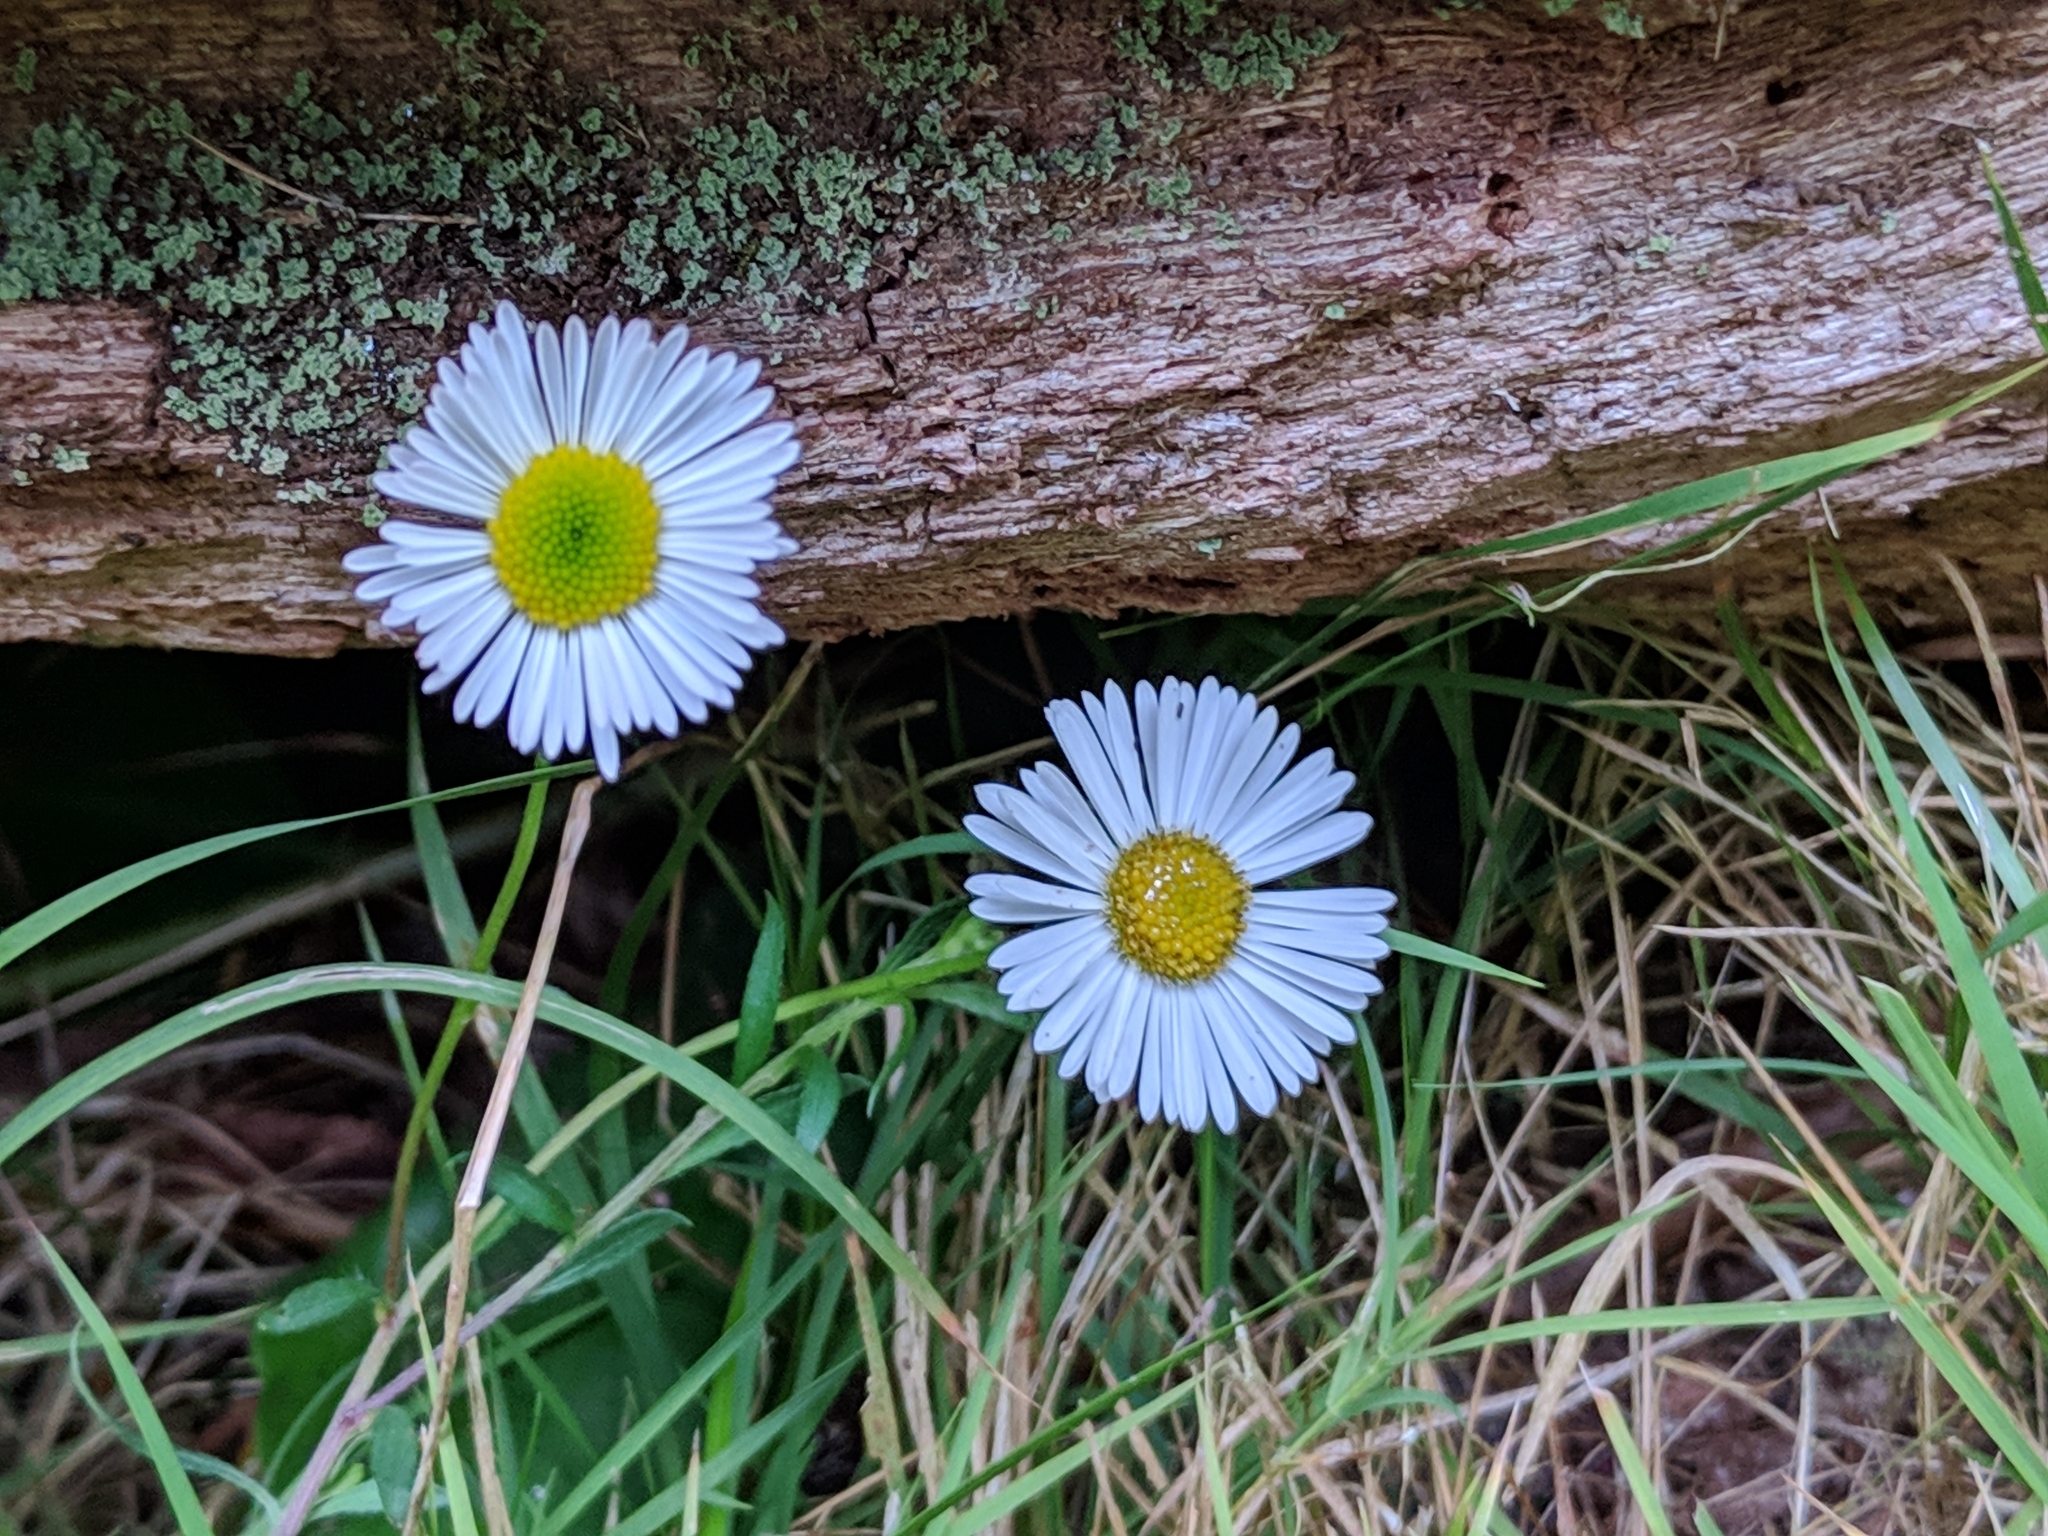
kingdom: Plantae
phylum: Tracheophyta
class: Magnoliopsida
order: Asterales
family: Asteraceae
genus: Erigeron
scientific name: Erigeron karvinskianus
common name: Mexican fleabane
